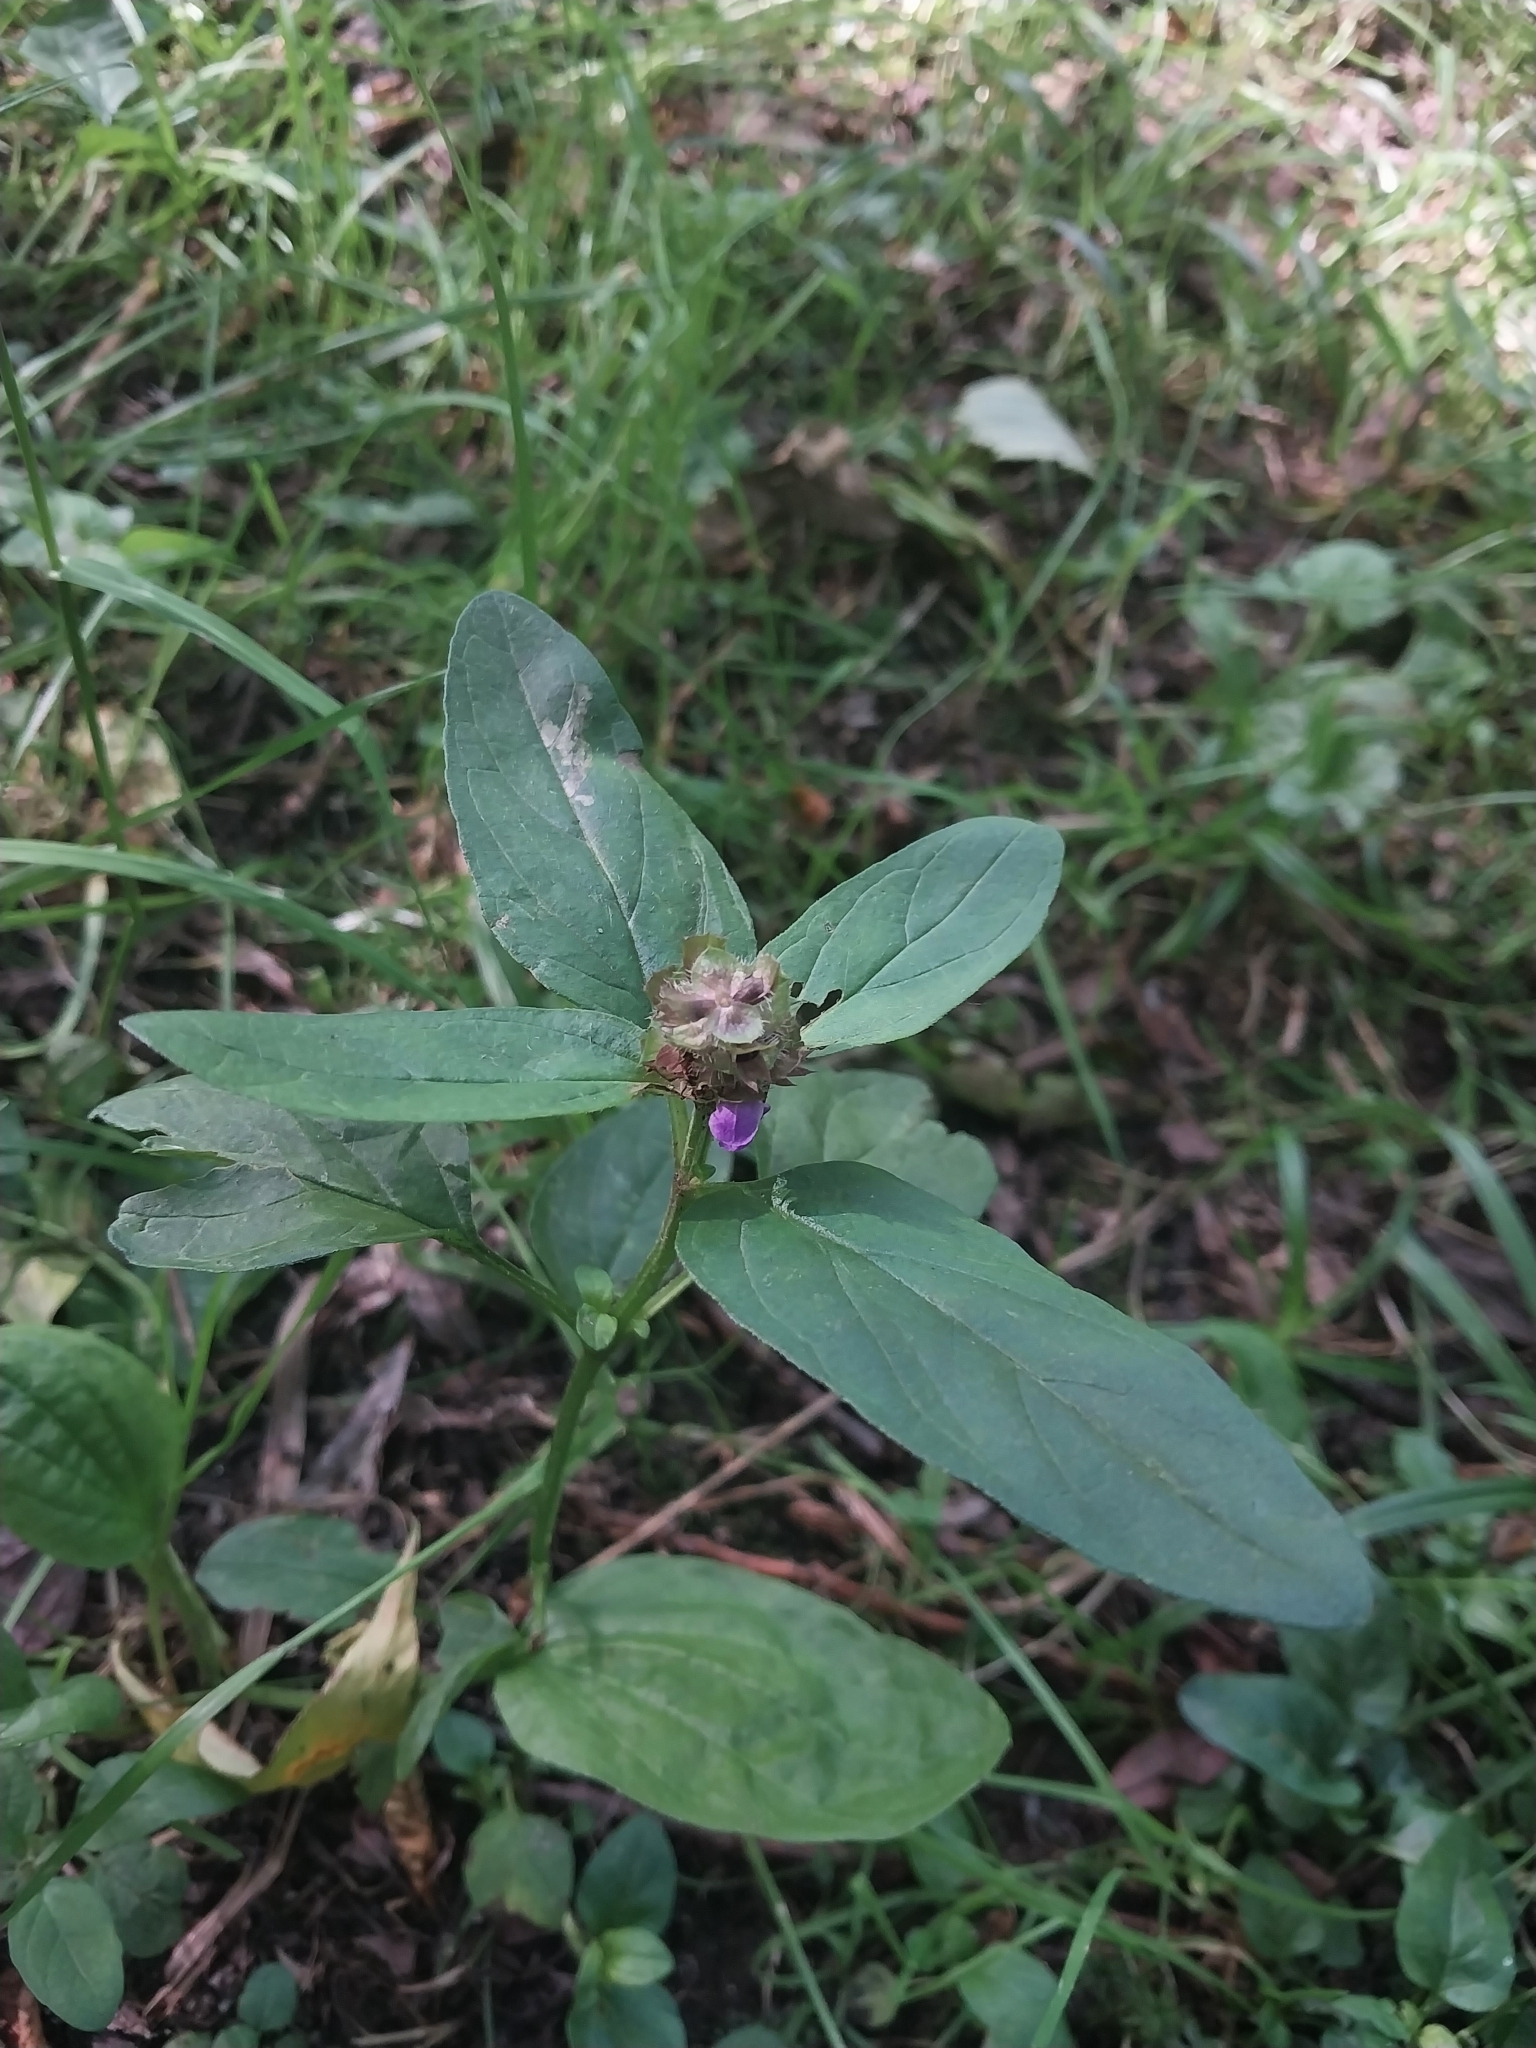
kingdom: Plantae
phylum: Tracheophyta
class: Magnoliopsida
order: Lamiales
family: Lamiaceae
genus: Prunella
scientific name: Prunella vulgaris
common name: Heal-all
